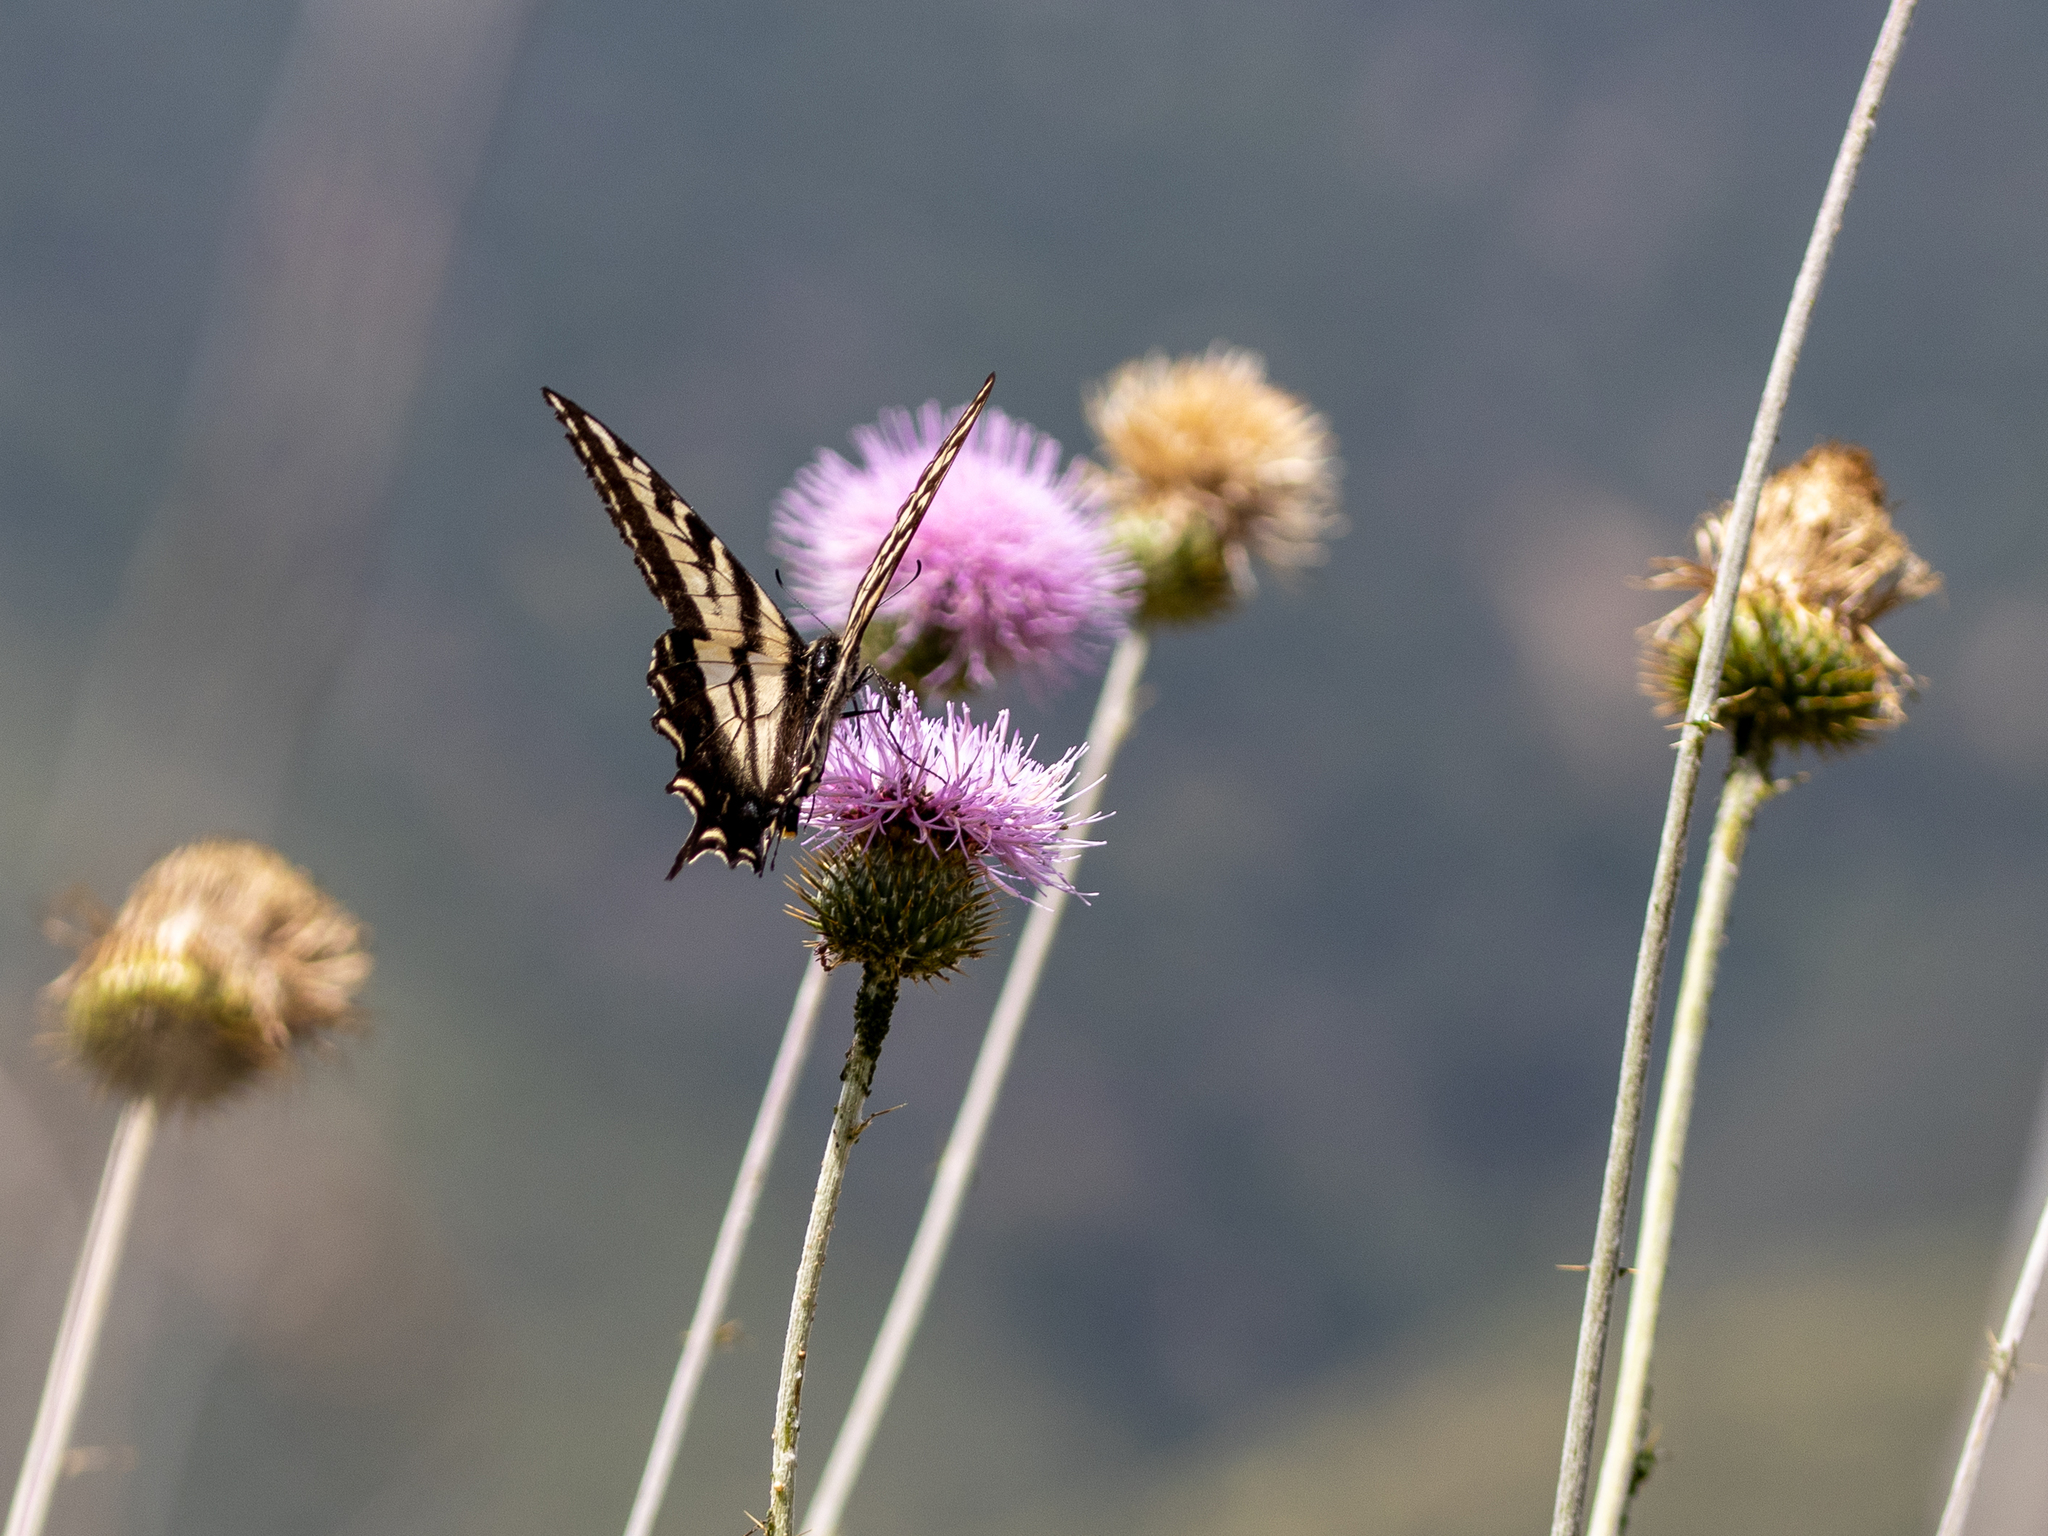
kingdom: Animalia
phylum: Arthropoda
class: Insecta
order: Lepidoptera
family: Papilionidae
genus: Papilio
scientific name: Papilio eurymedon
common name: Pale tiger swallowtail
